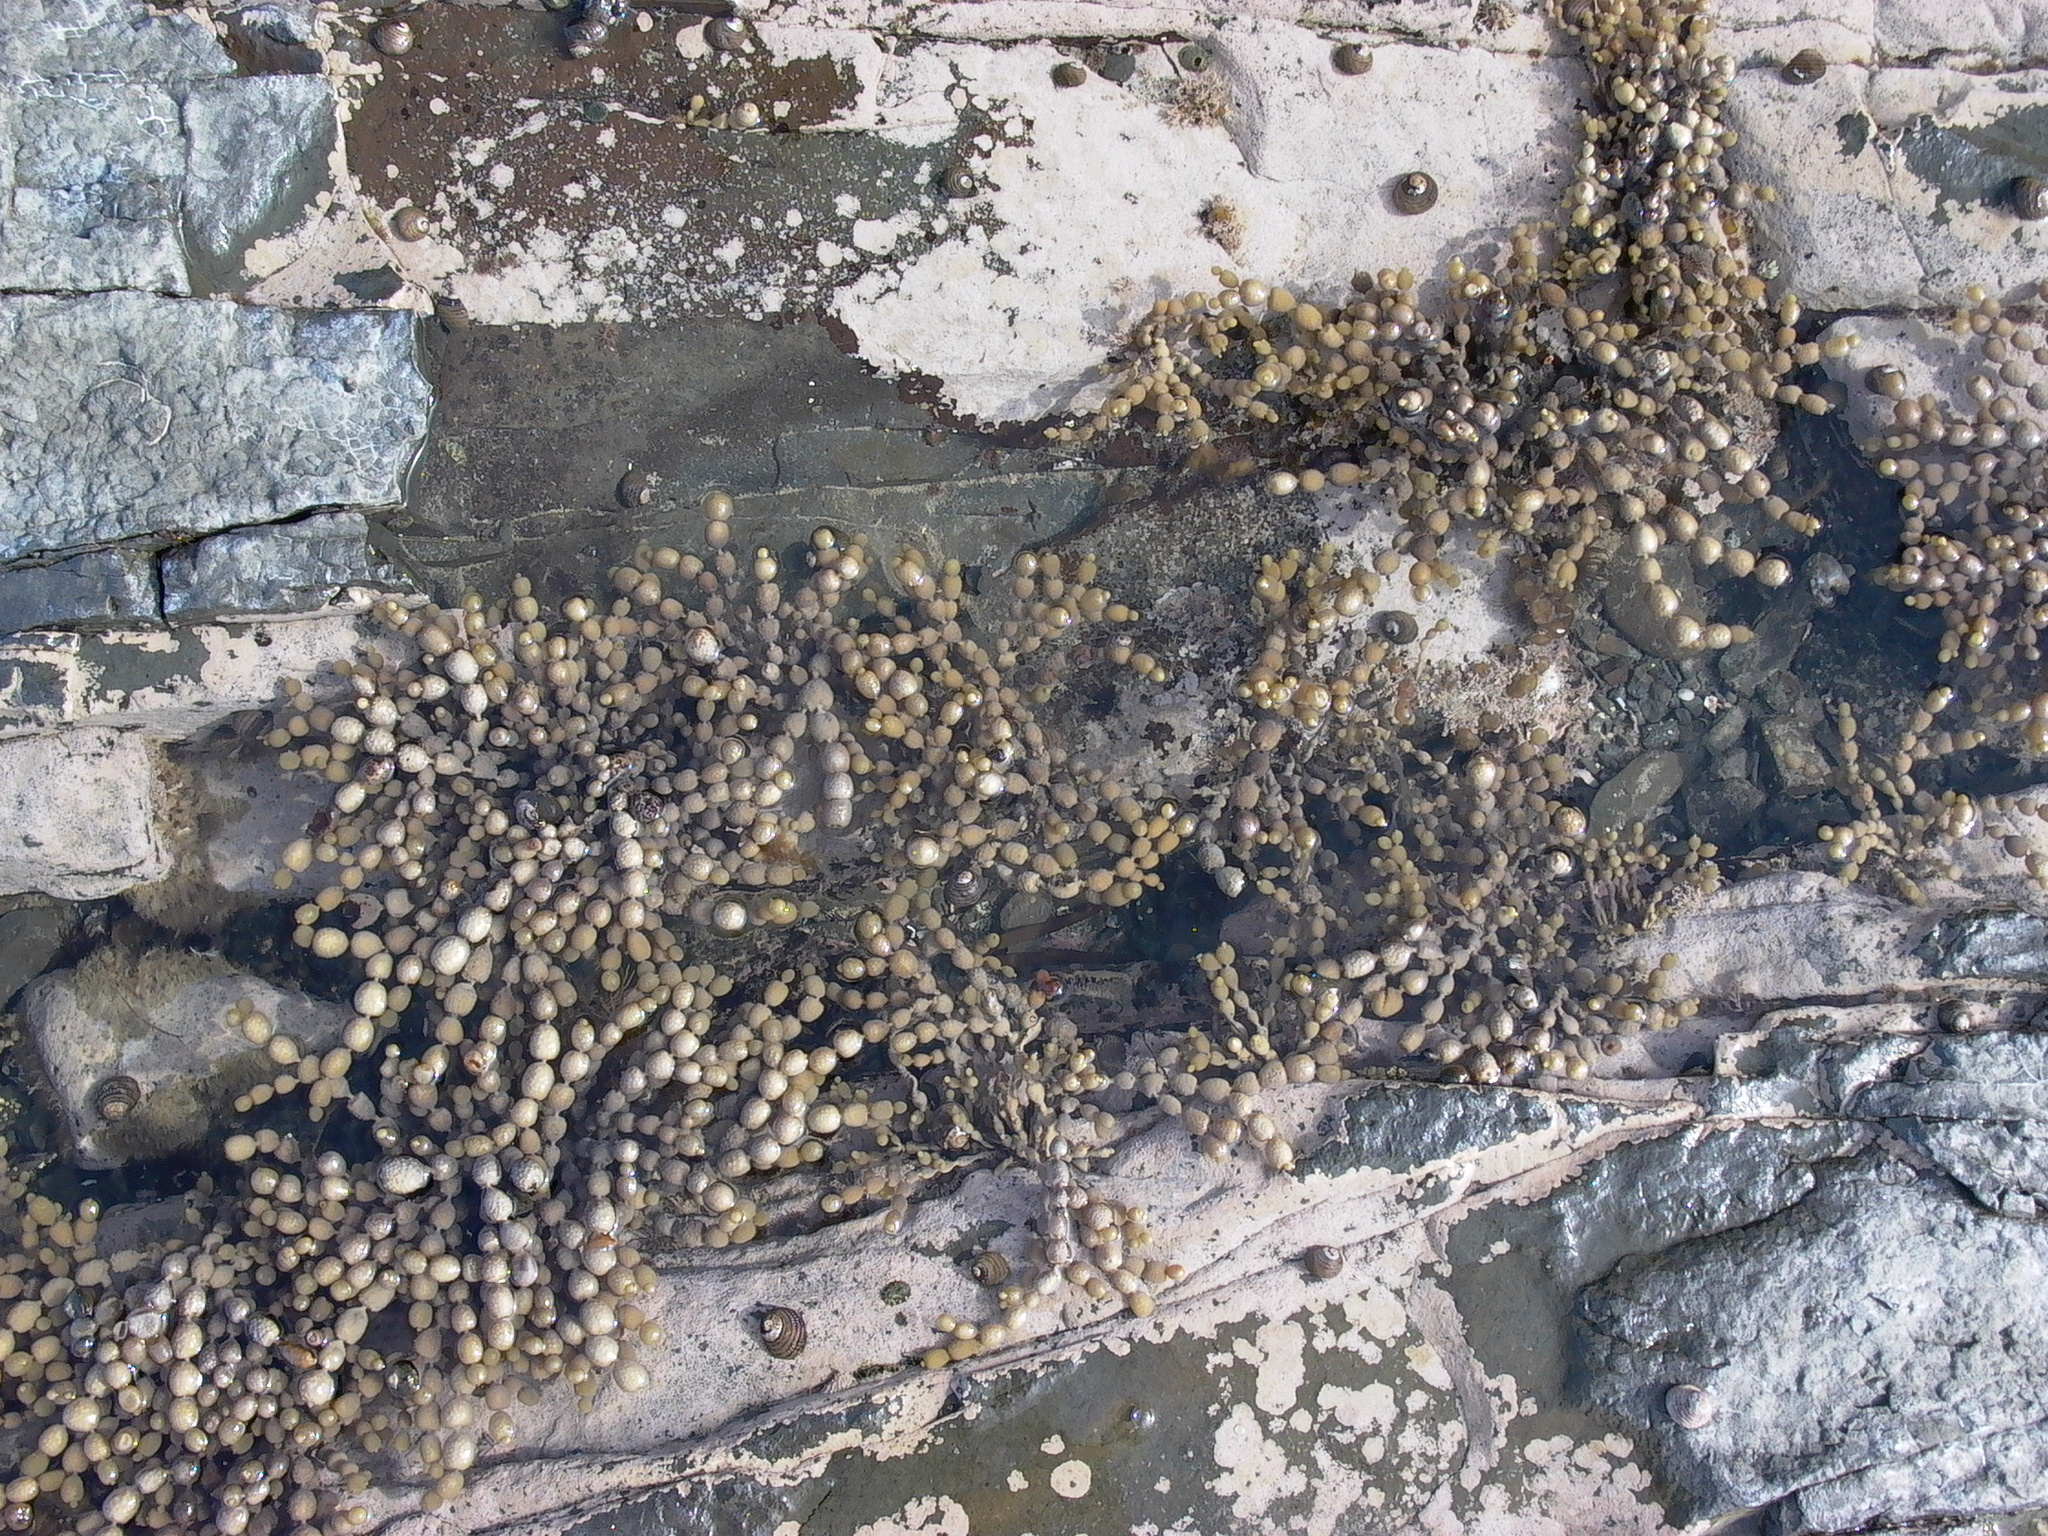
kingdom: Chromista
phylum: Ochrophyta
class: Phaeophyceae
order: Fucales
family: Hormosiraceae
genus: Hormosira
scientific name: Hormosira banksii
